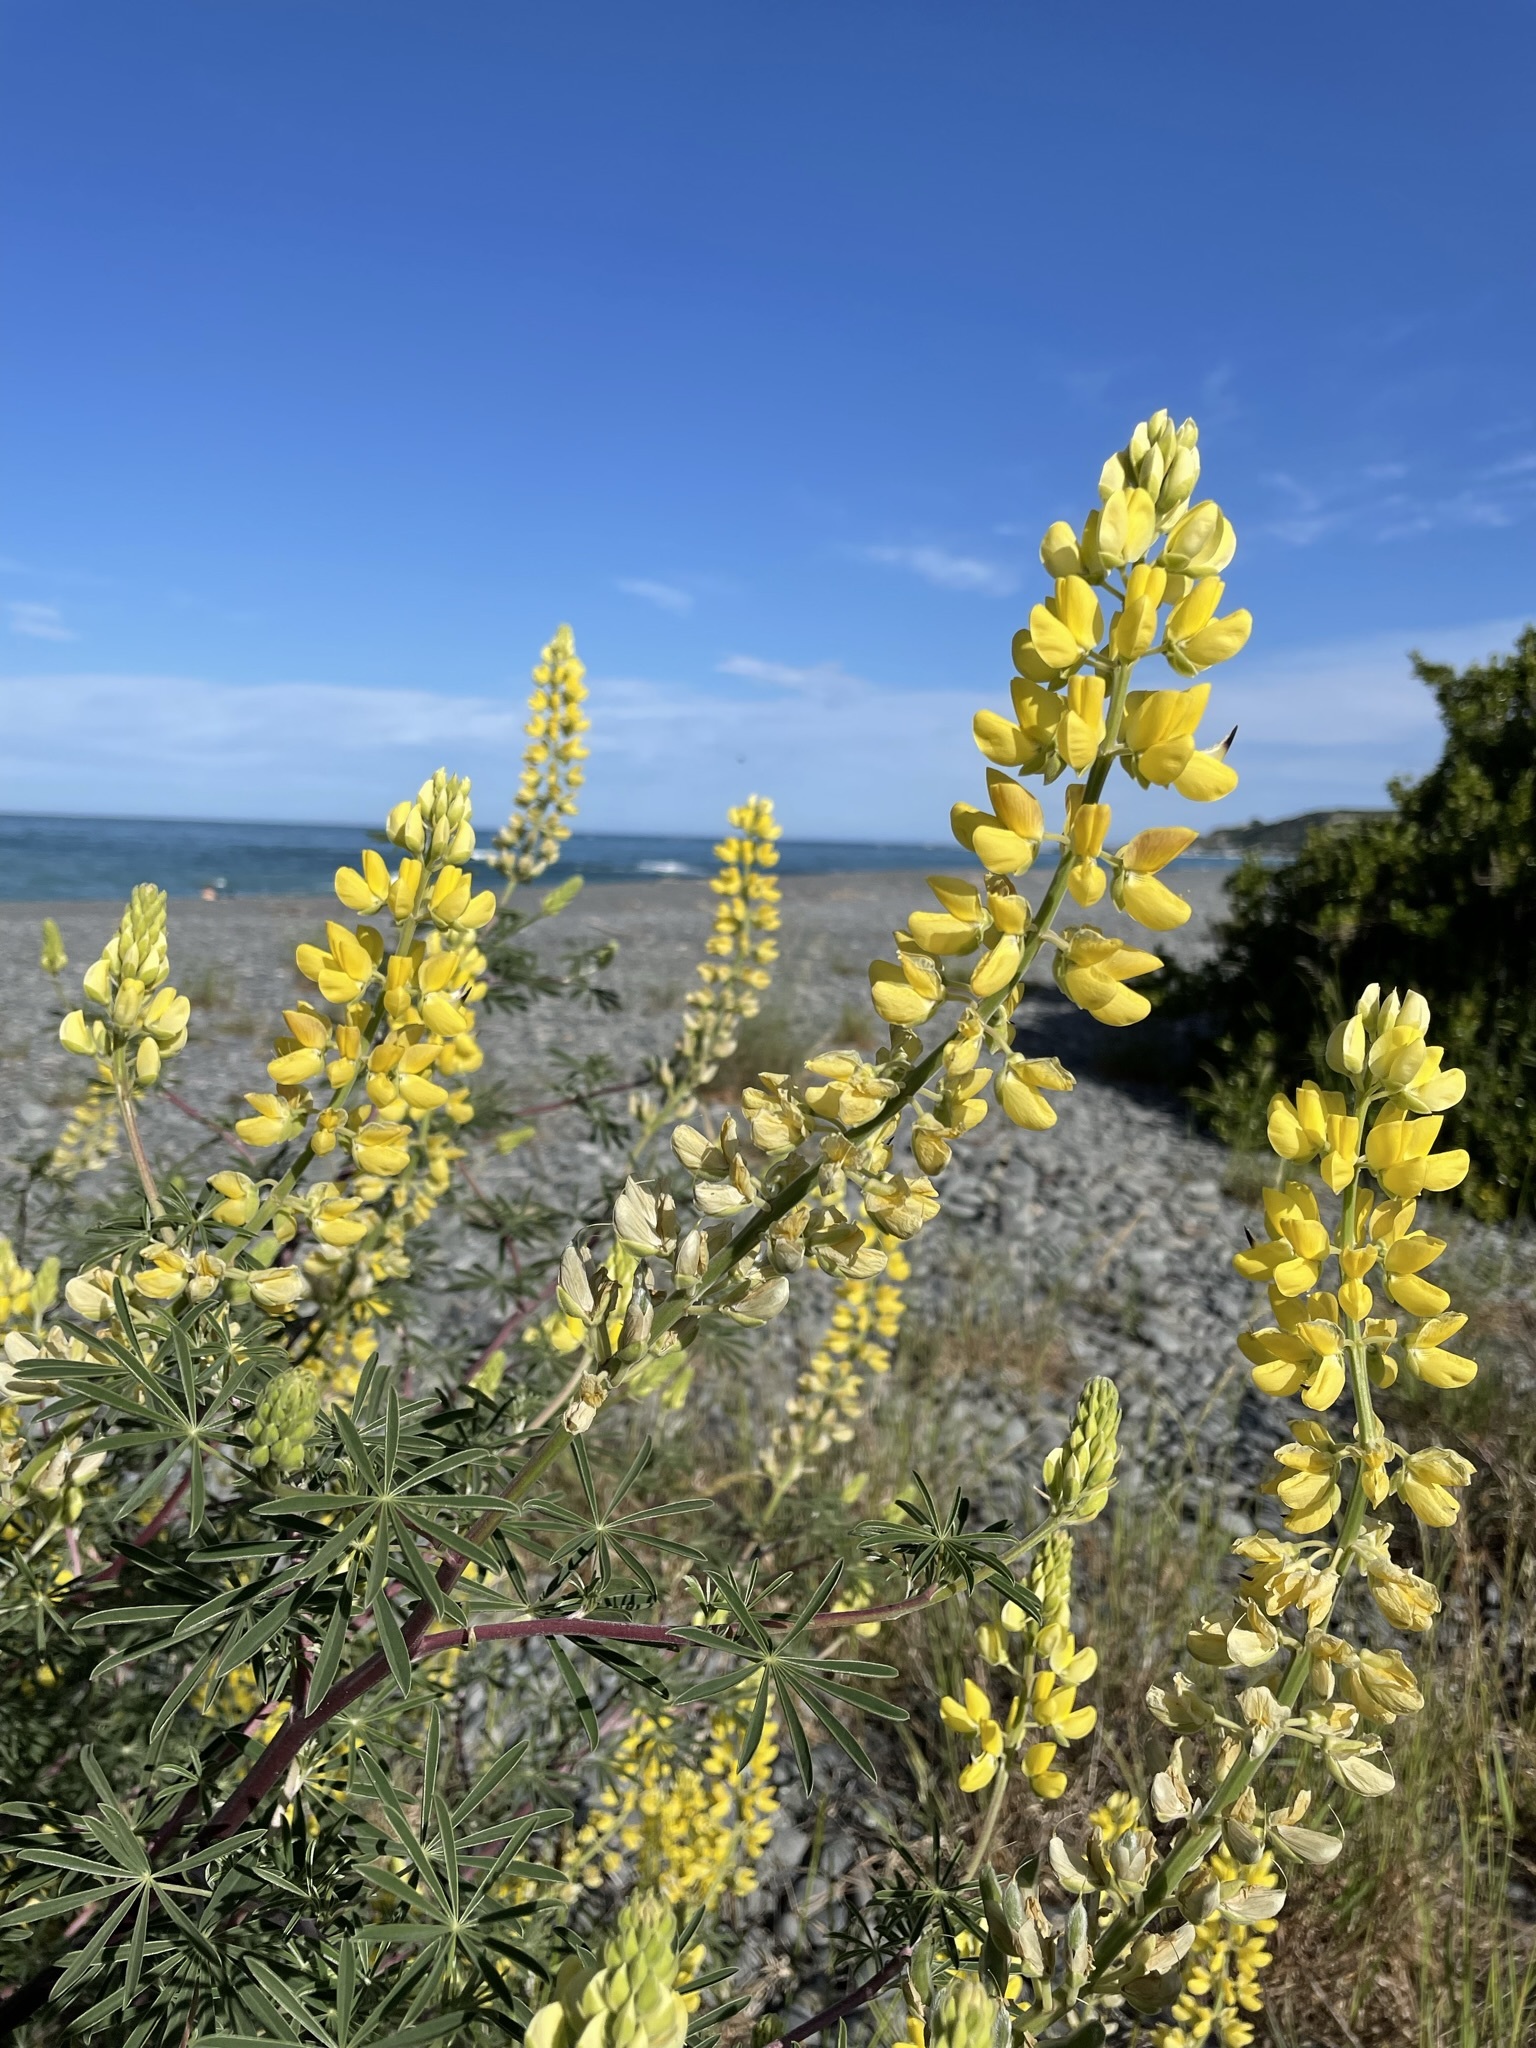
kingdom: Plantae
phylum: Tracheophyta
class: Magnoliopsida
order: Fabales
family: Fabaceae
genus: Lupinus
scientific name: Lupinus arboreus
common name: Yellow bush lupine
